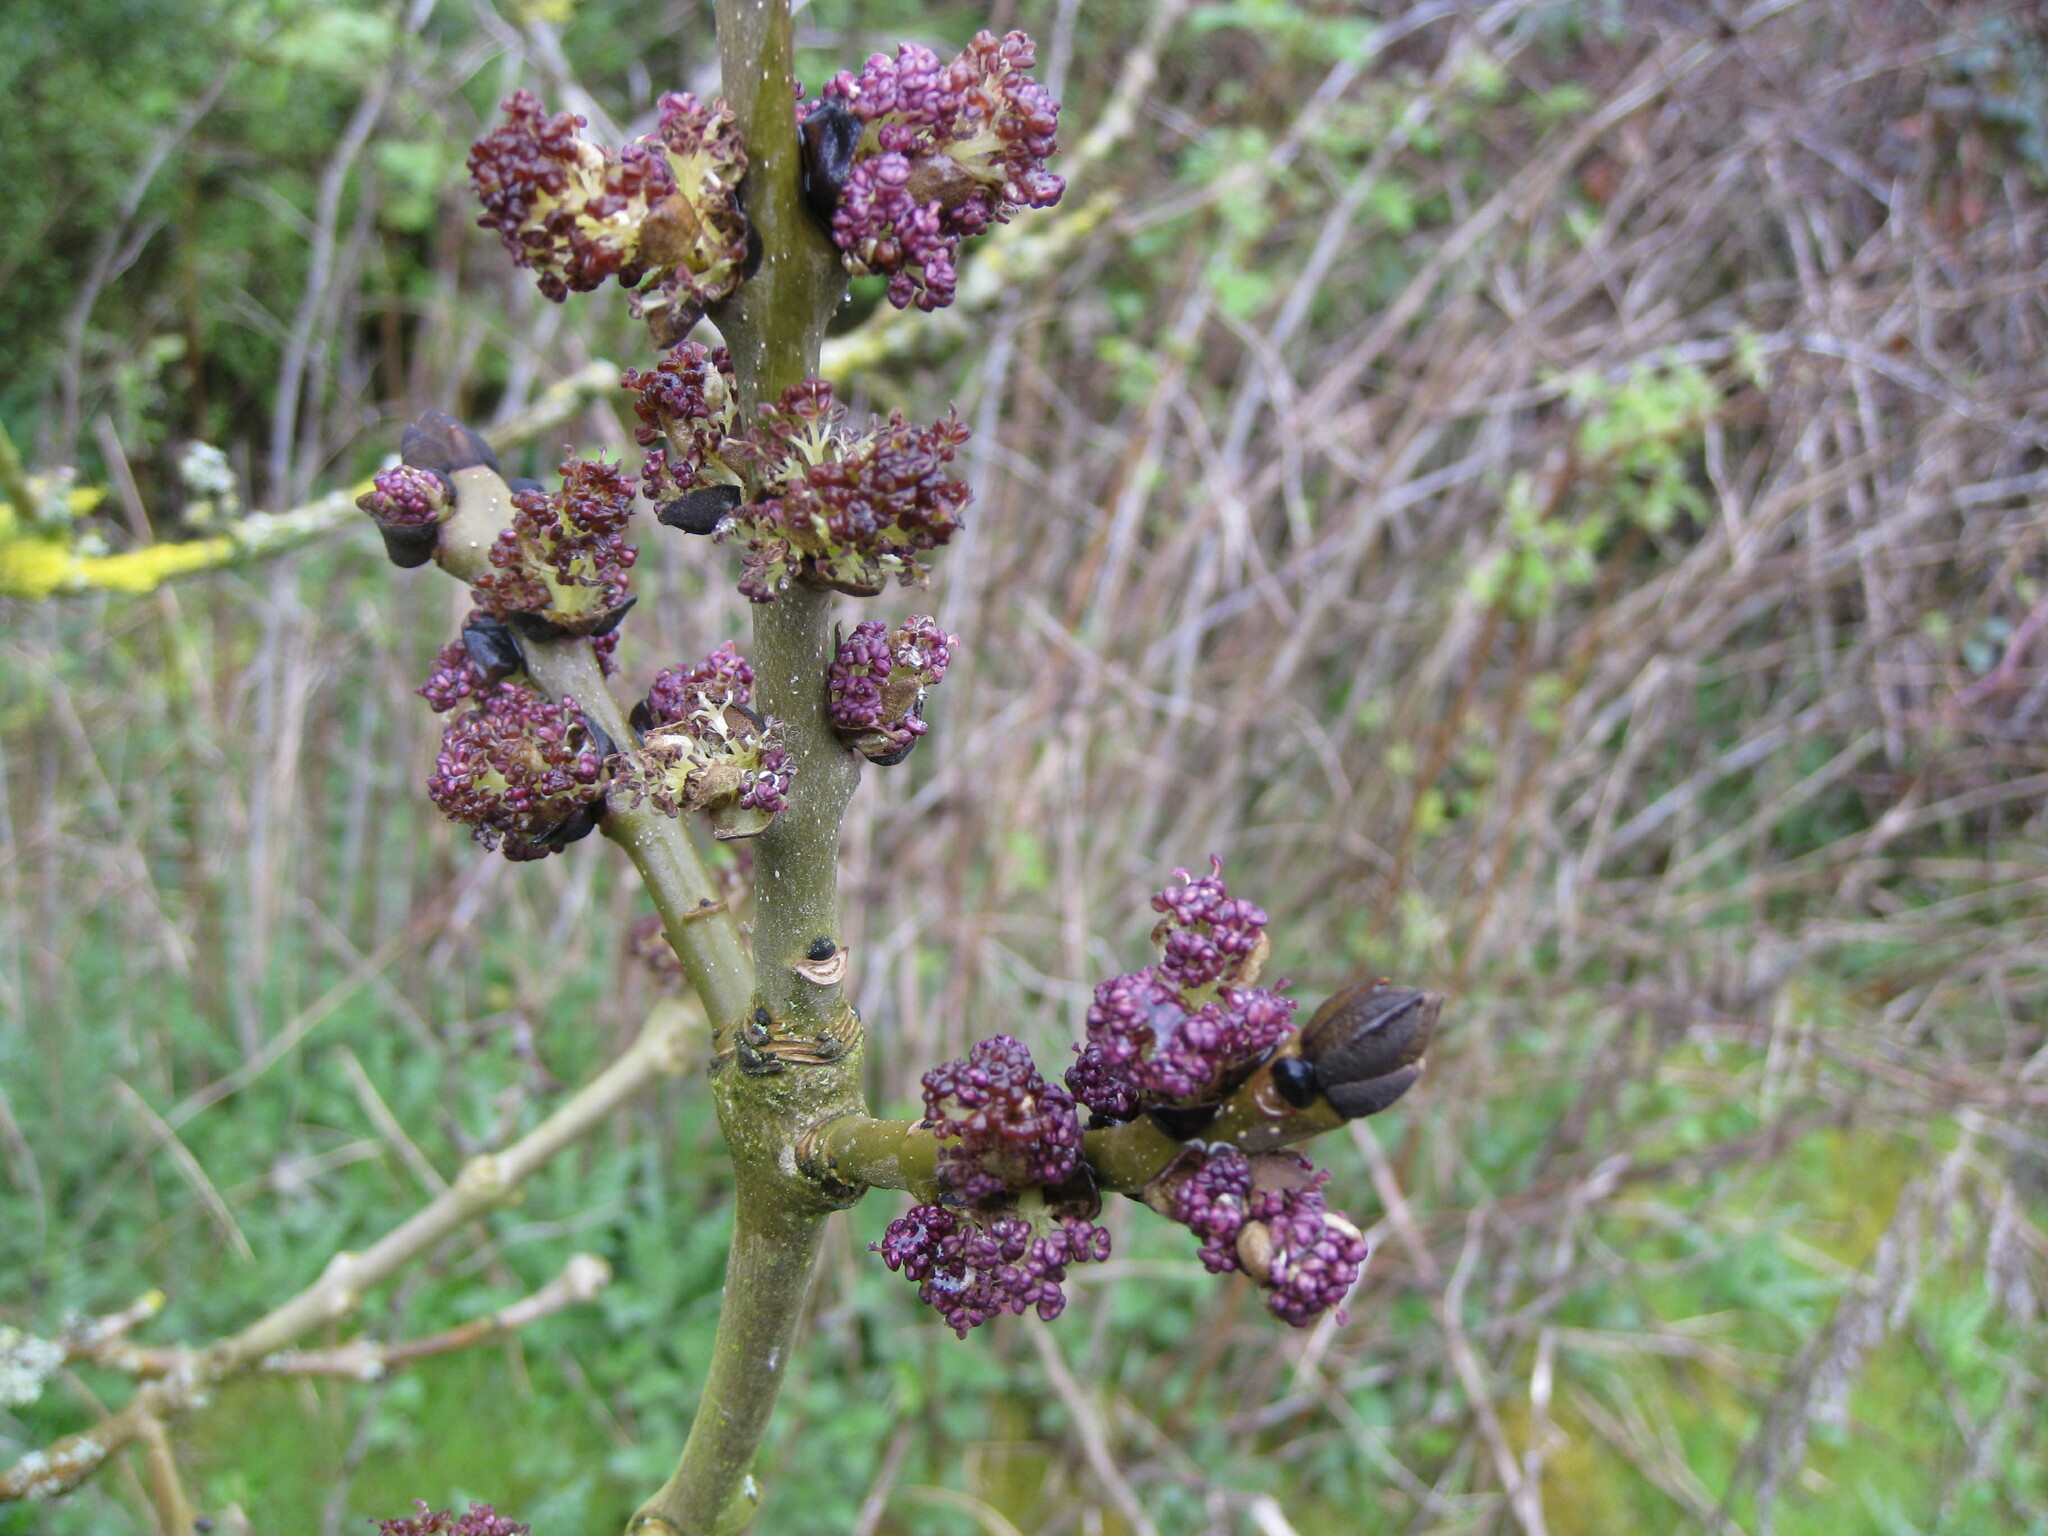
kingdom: Plantae
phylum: Tracheophyta
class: Magnoliopsida
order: Lamiales
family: Oleaceae
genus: Fraxinus
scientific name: Fraxinus excelsior
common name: European ash
